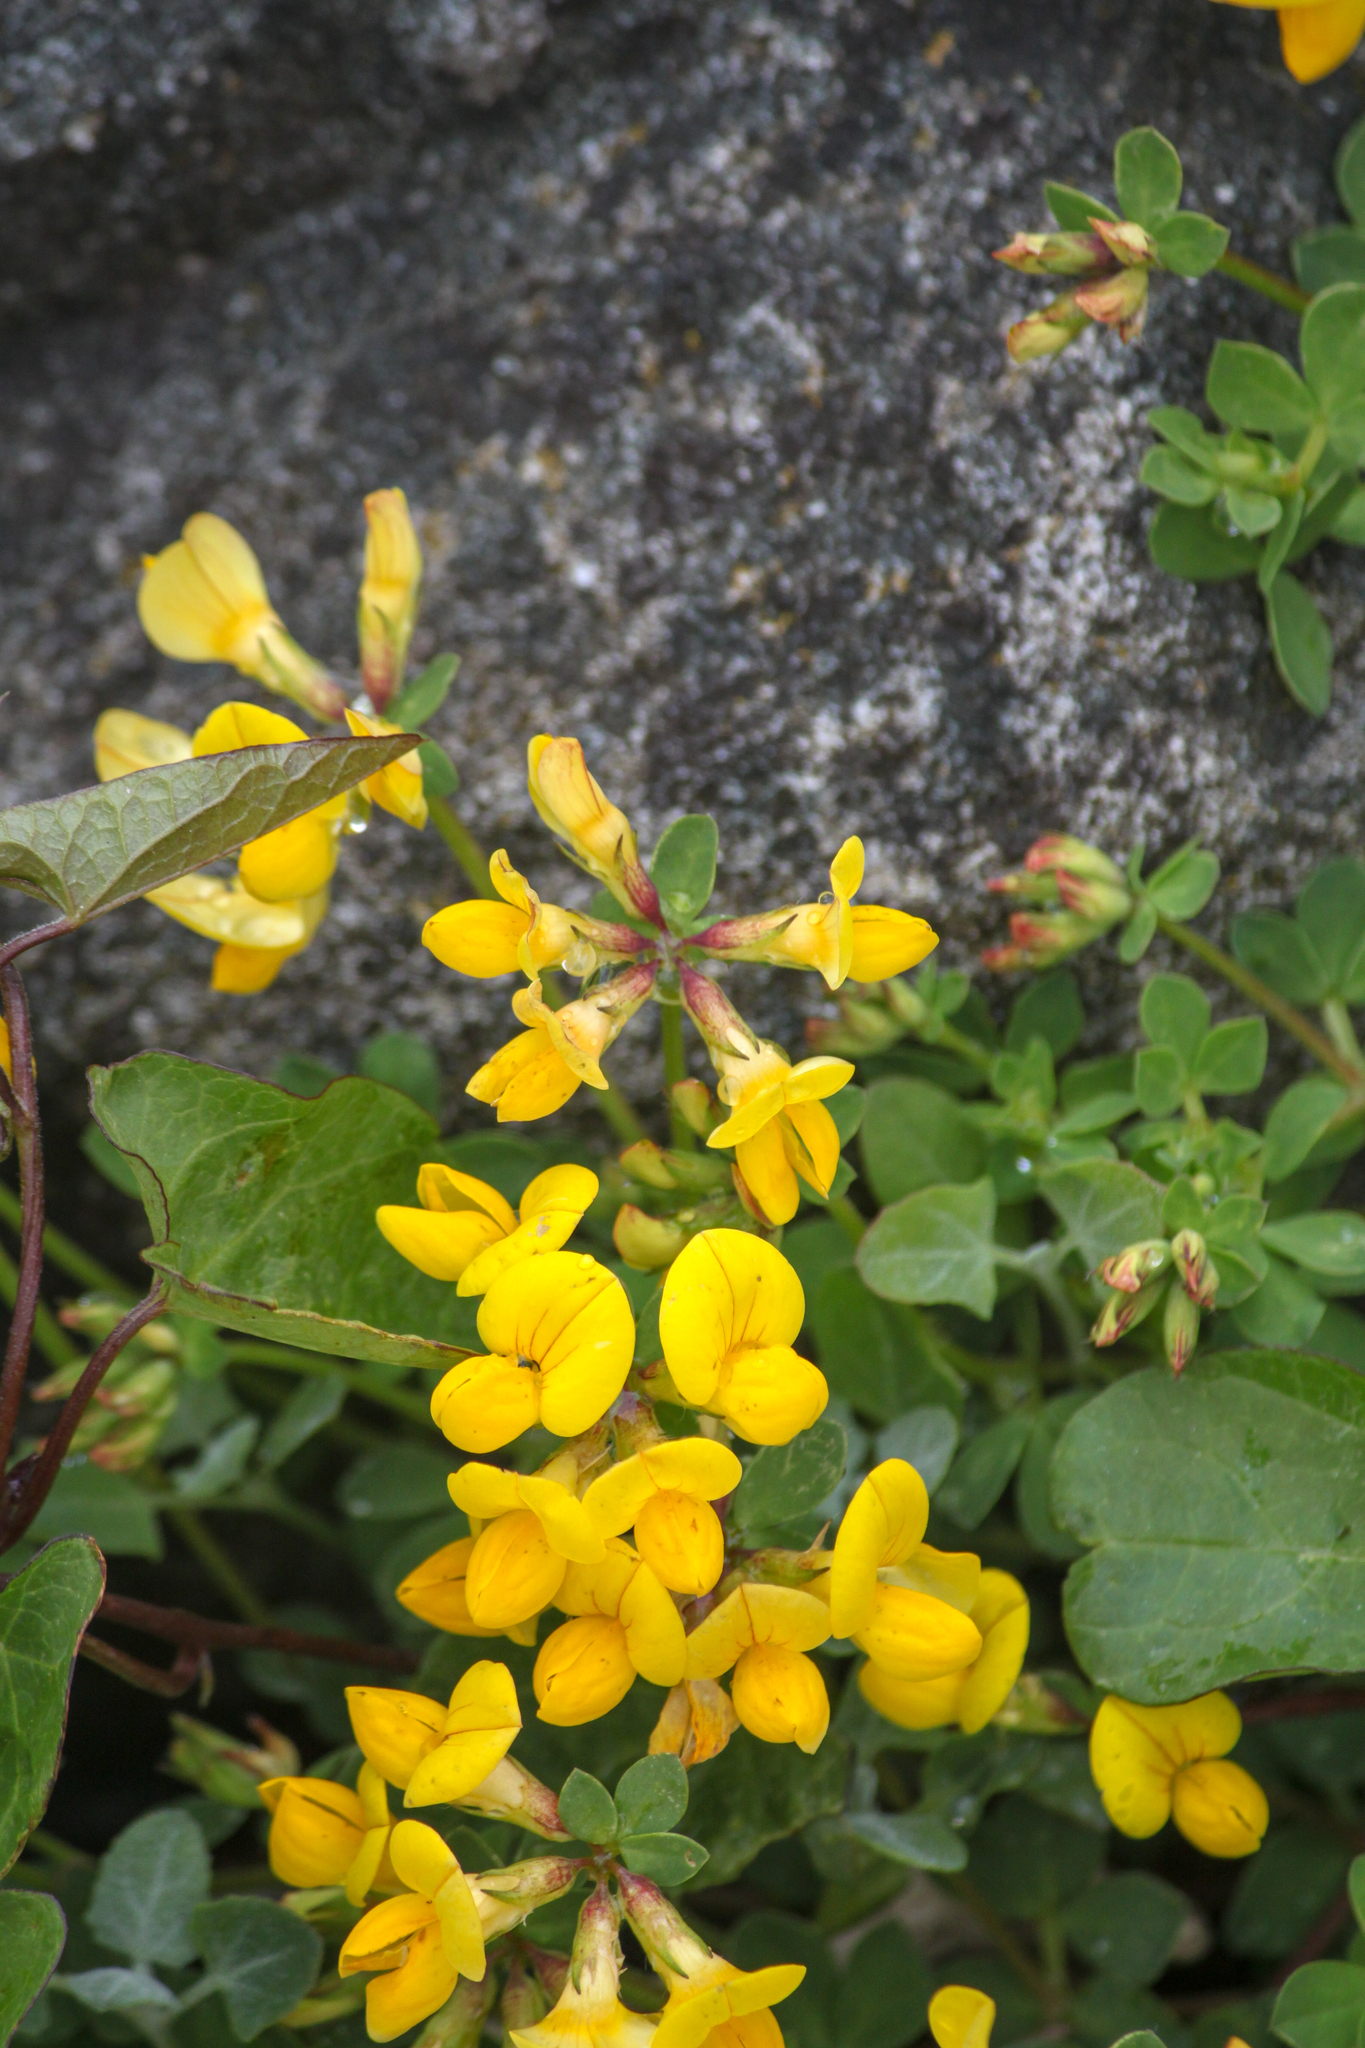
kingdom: Plantae
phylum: Tracheophyta
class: Magnoliopsida
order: Fabales
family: Fabaceae
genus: Lotus
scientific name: Lotus corniculatus
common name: Common bird's-foot-trefoil
